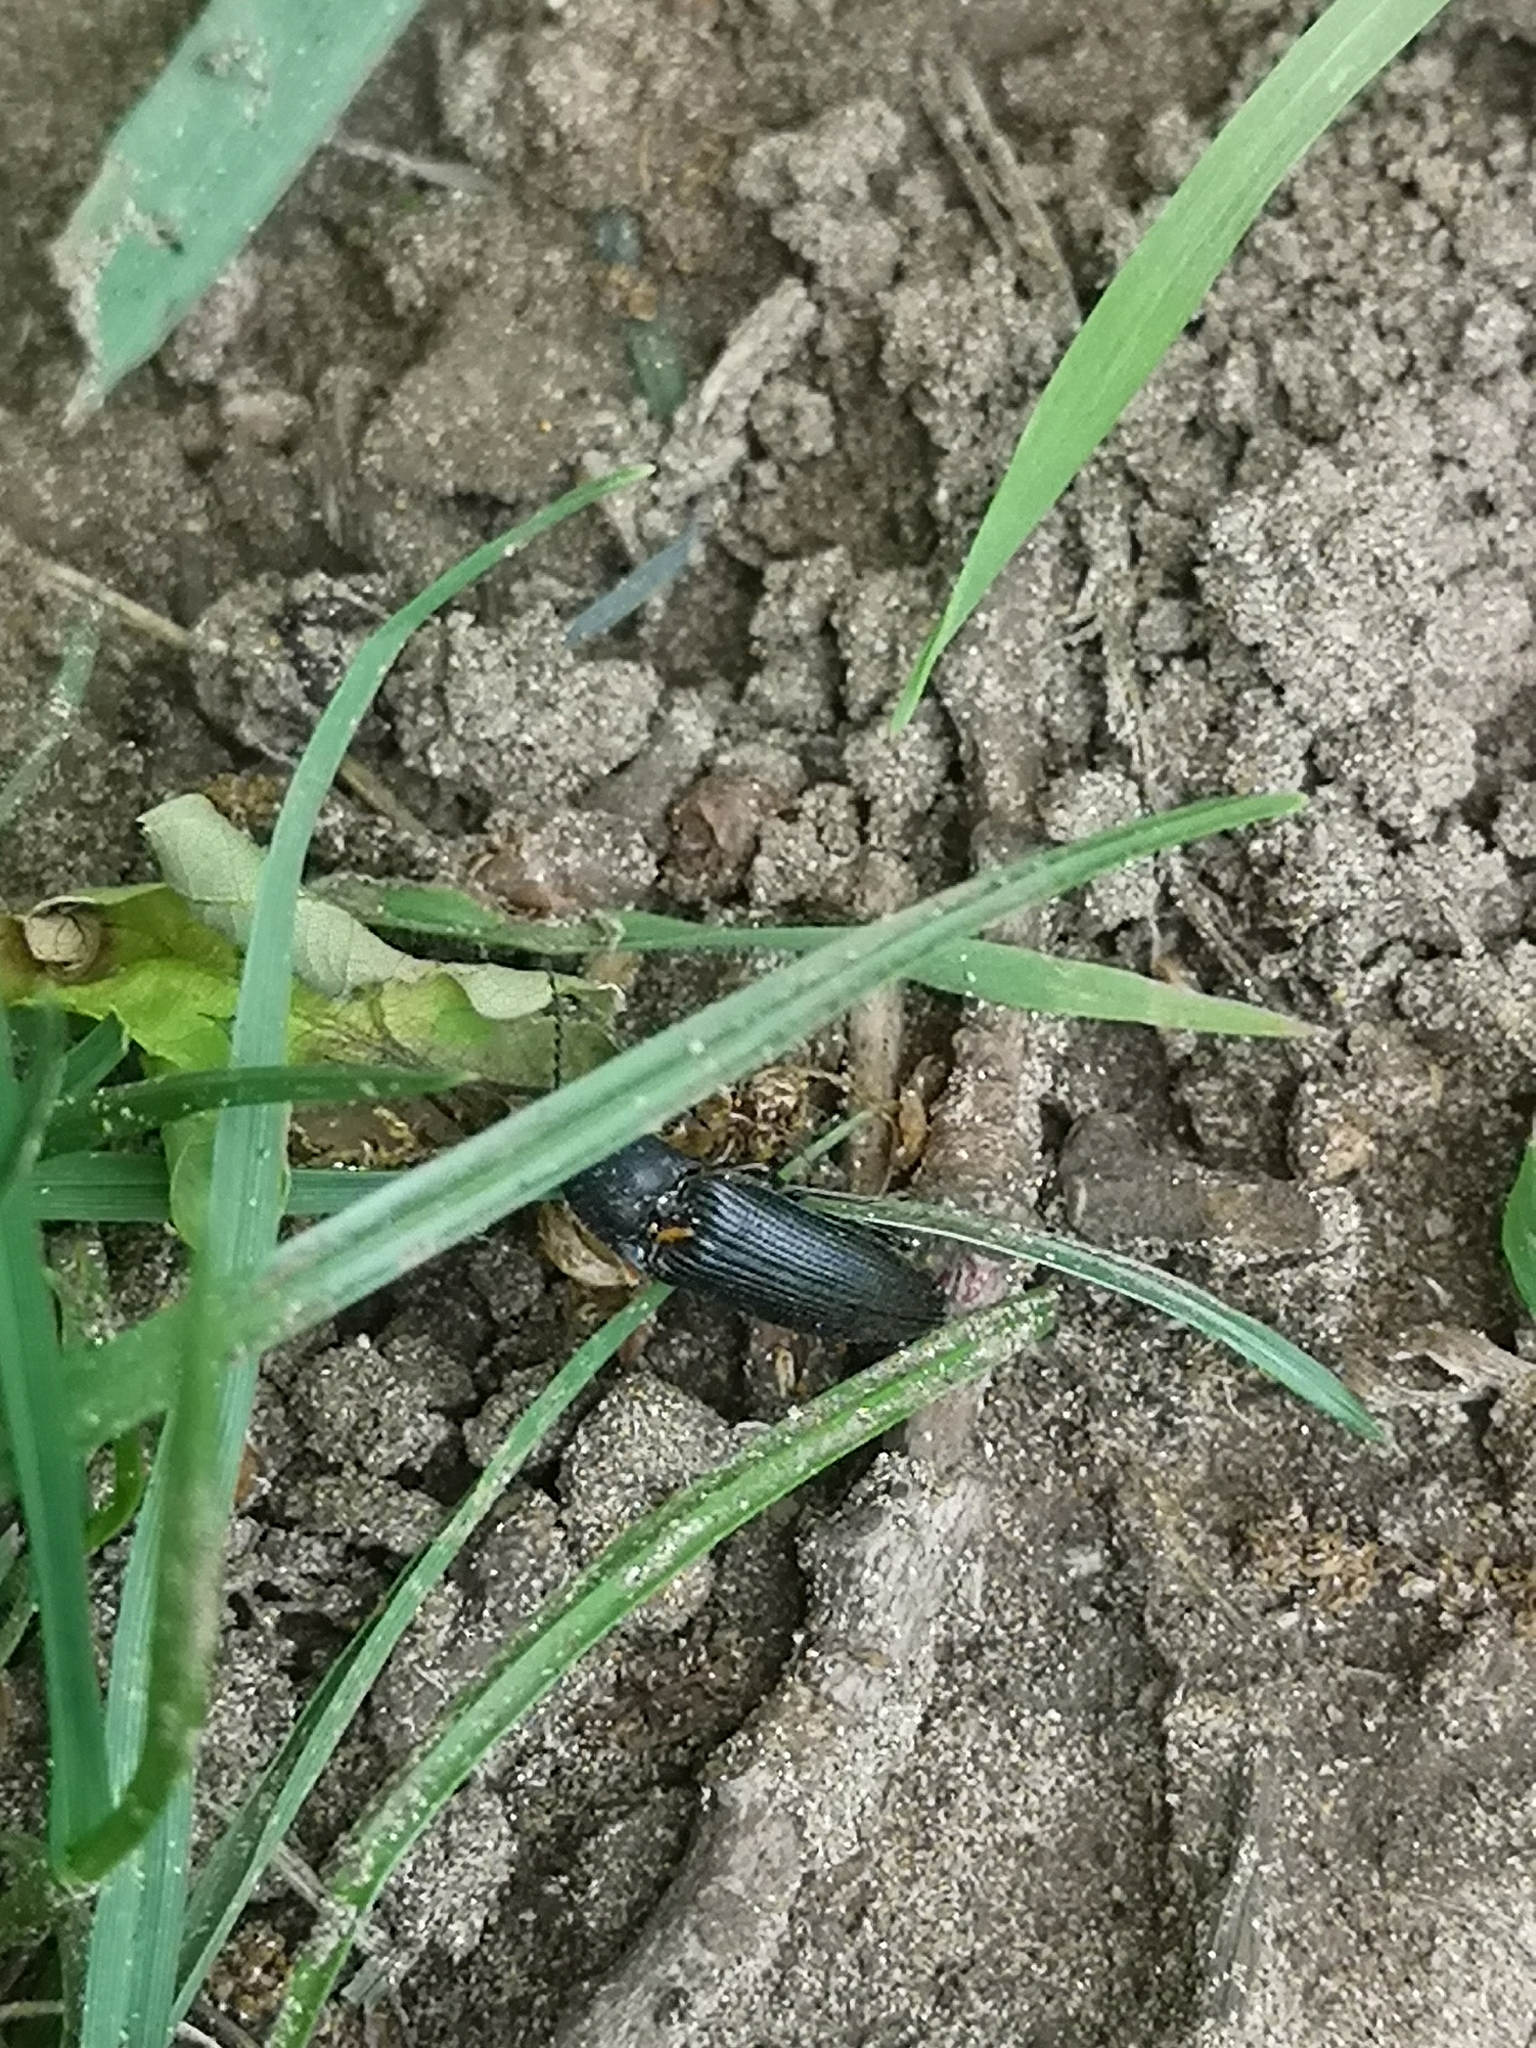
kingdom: Animalia
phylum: Arthropoda
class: Insecta
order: Coleoptera
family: Elateridae
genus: Melanotus
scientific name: Melanotus punctolineatus
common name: Sandwich click beetle
